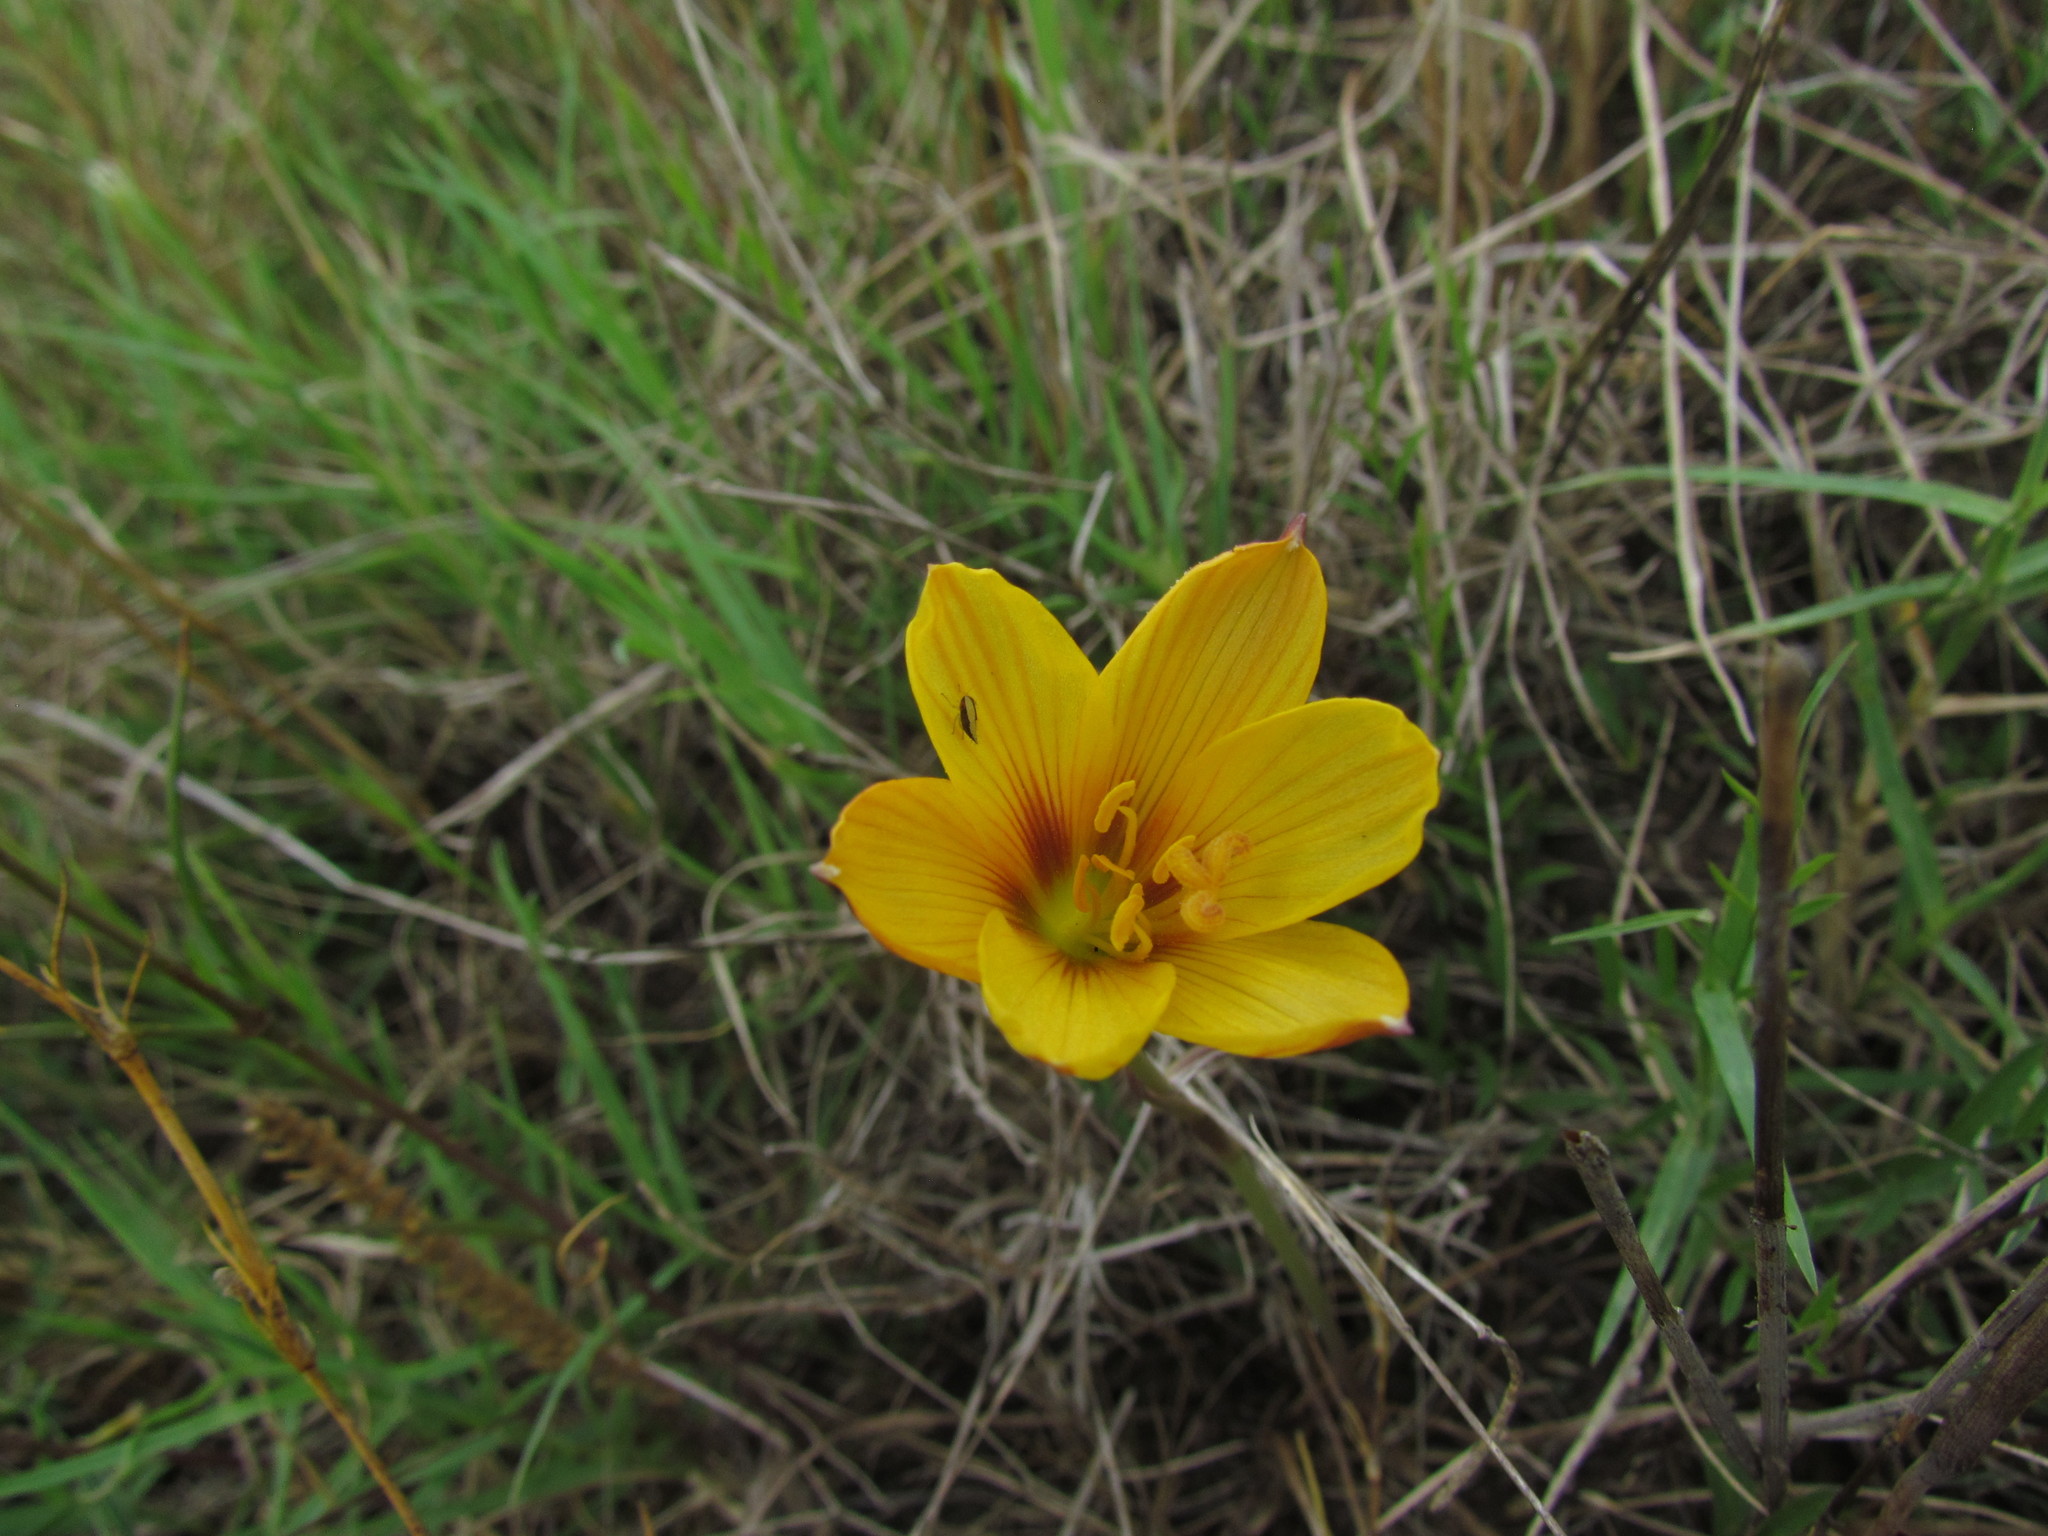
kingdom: Plantae
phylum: Tracheophyta
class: Liliopsida
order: Asparagales
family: Amaryllidaceae
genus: Zephyranthes
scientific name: Zephyranthes tubispatha
